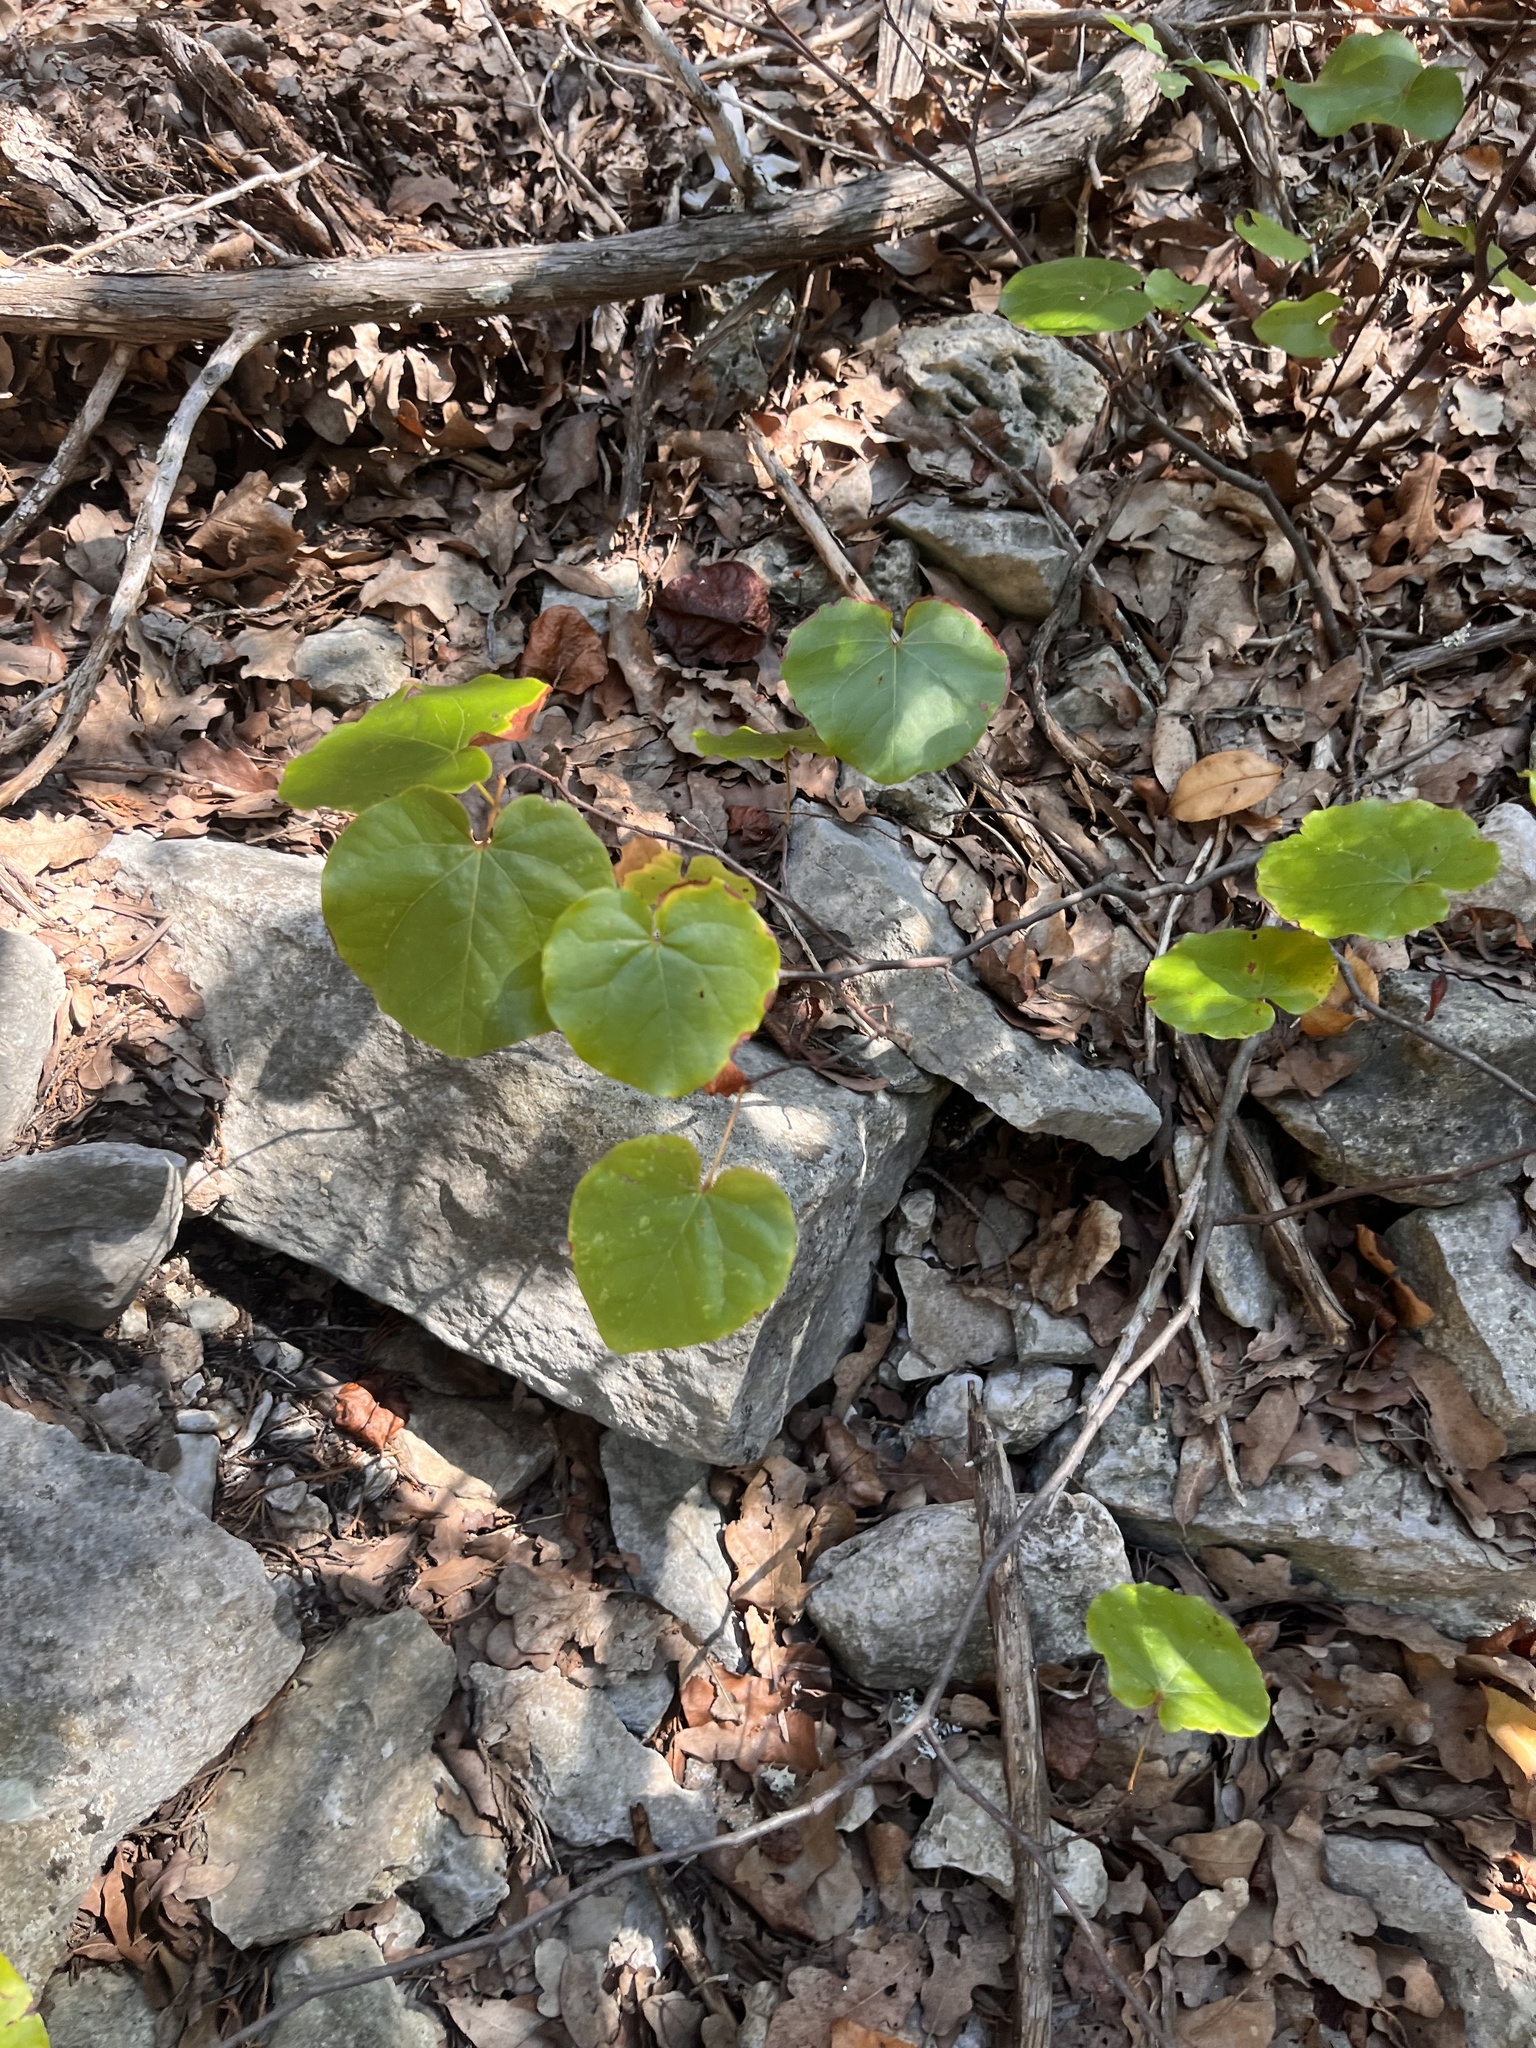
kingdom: Plantae
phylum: Tracheophyta
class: Magnoliopsida
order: Fabales
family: Fabaceae
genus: Cercis
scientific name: Cercis canadensis
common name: Eastern redbud
